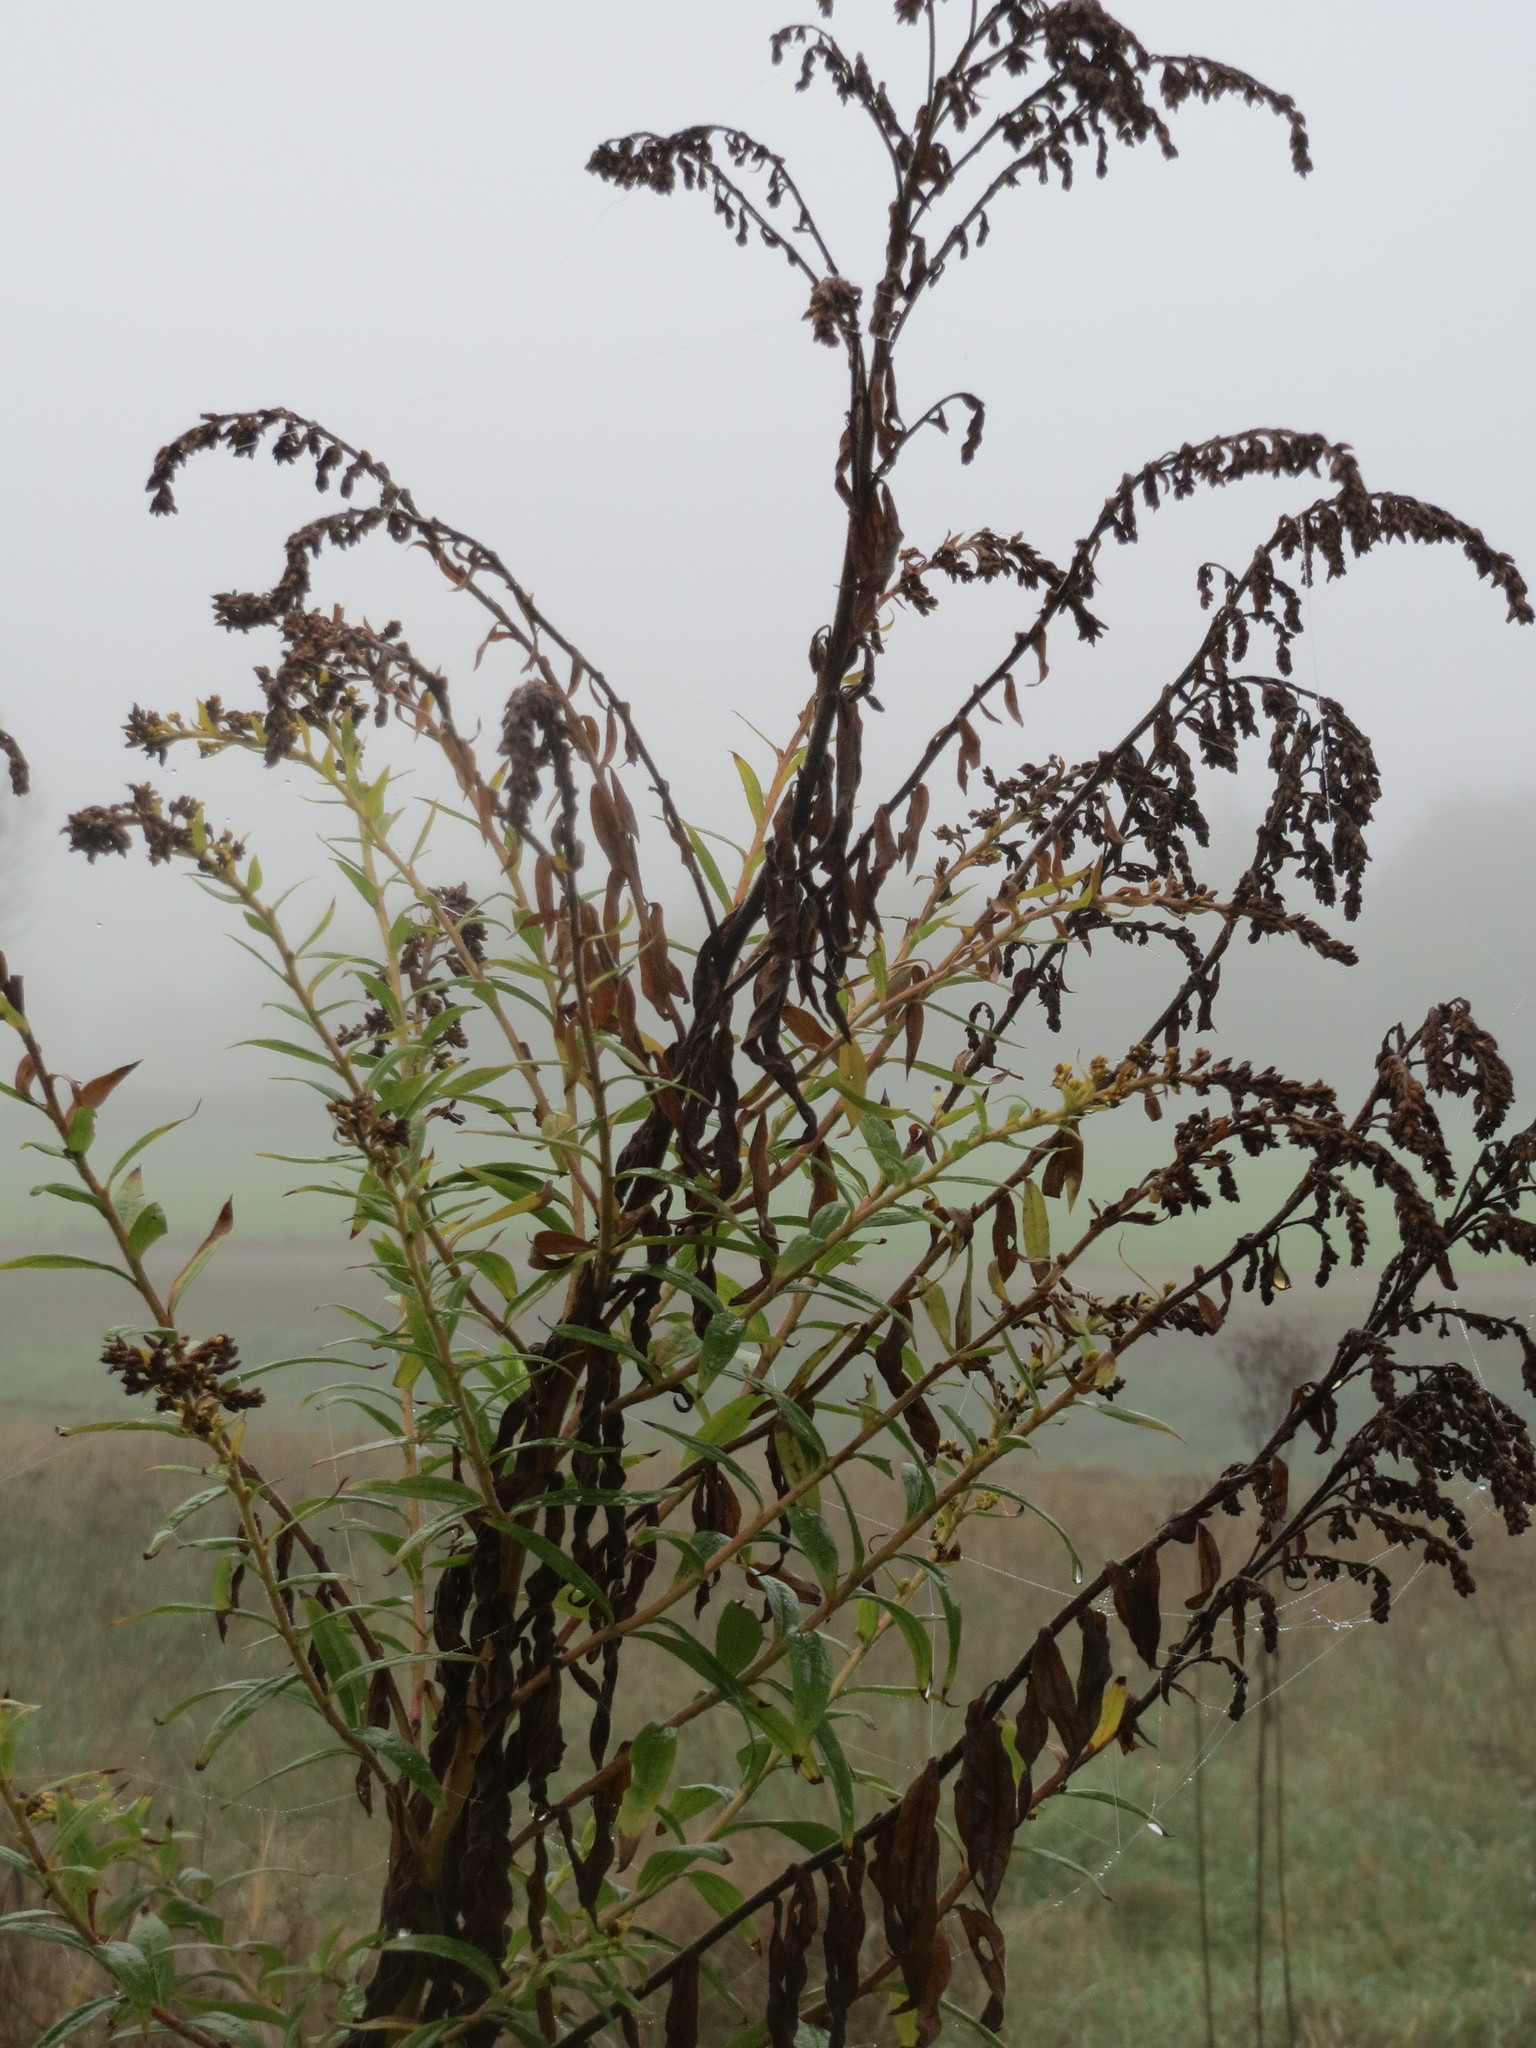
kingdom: Plantae
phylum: Tracheophyta
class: Magnoliopsida
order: Asterales
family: Asteraceae
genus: Solidago
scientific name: Solidago canadensis
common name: Canada goldenrod
